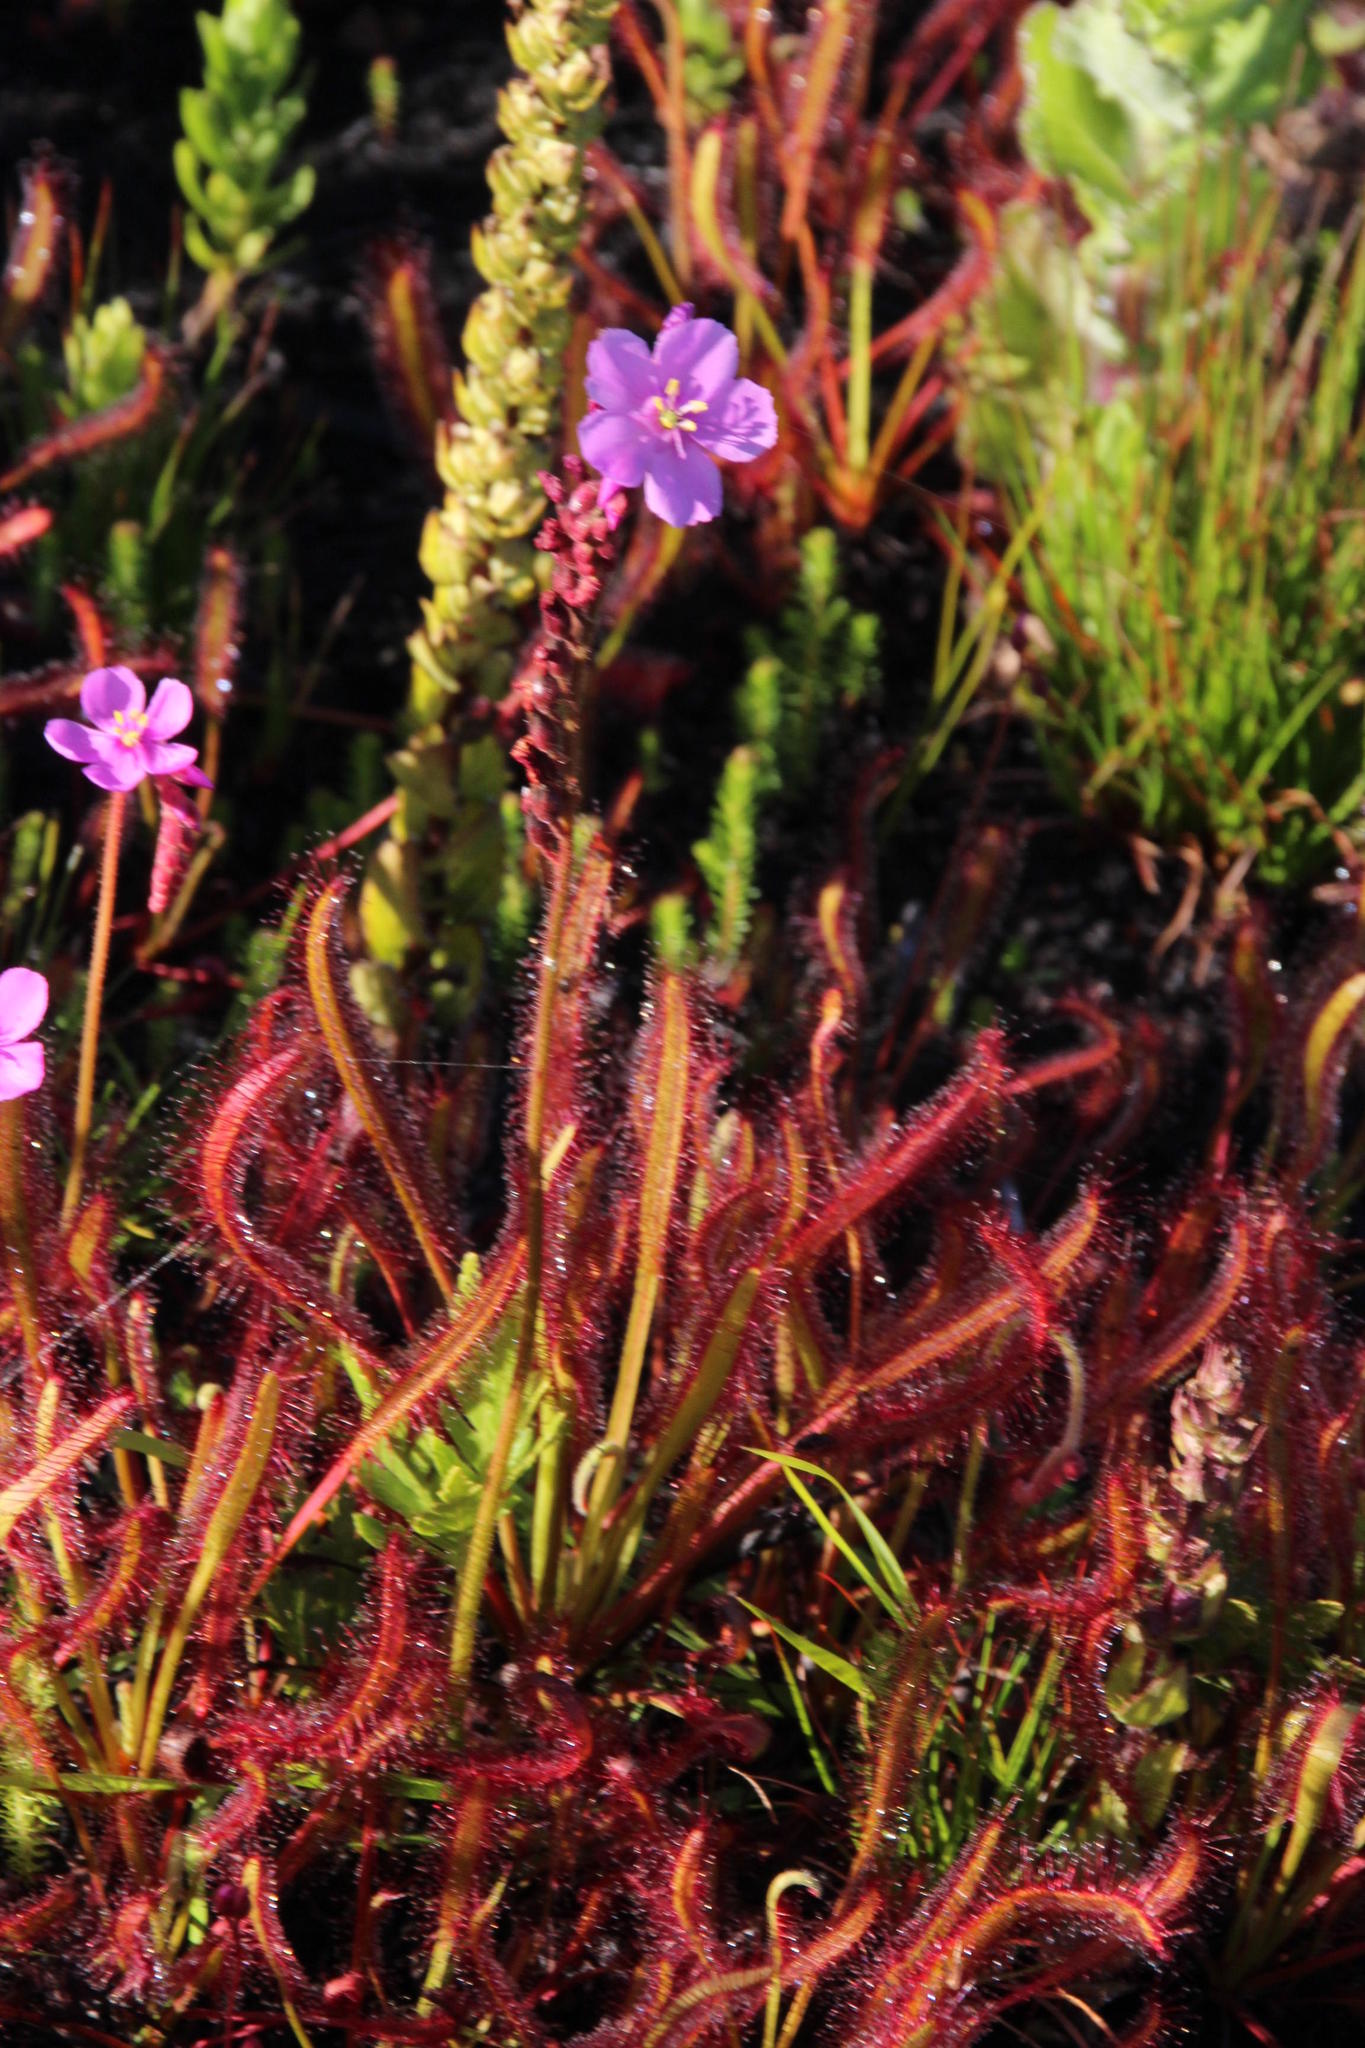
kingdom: Plantae
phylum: Tracheophyta
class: Magnoliopsida
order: Caryophyllales
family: Droseraceae
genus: Drosera
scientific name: Drosera capensis
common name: Cape sundew
